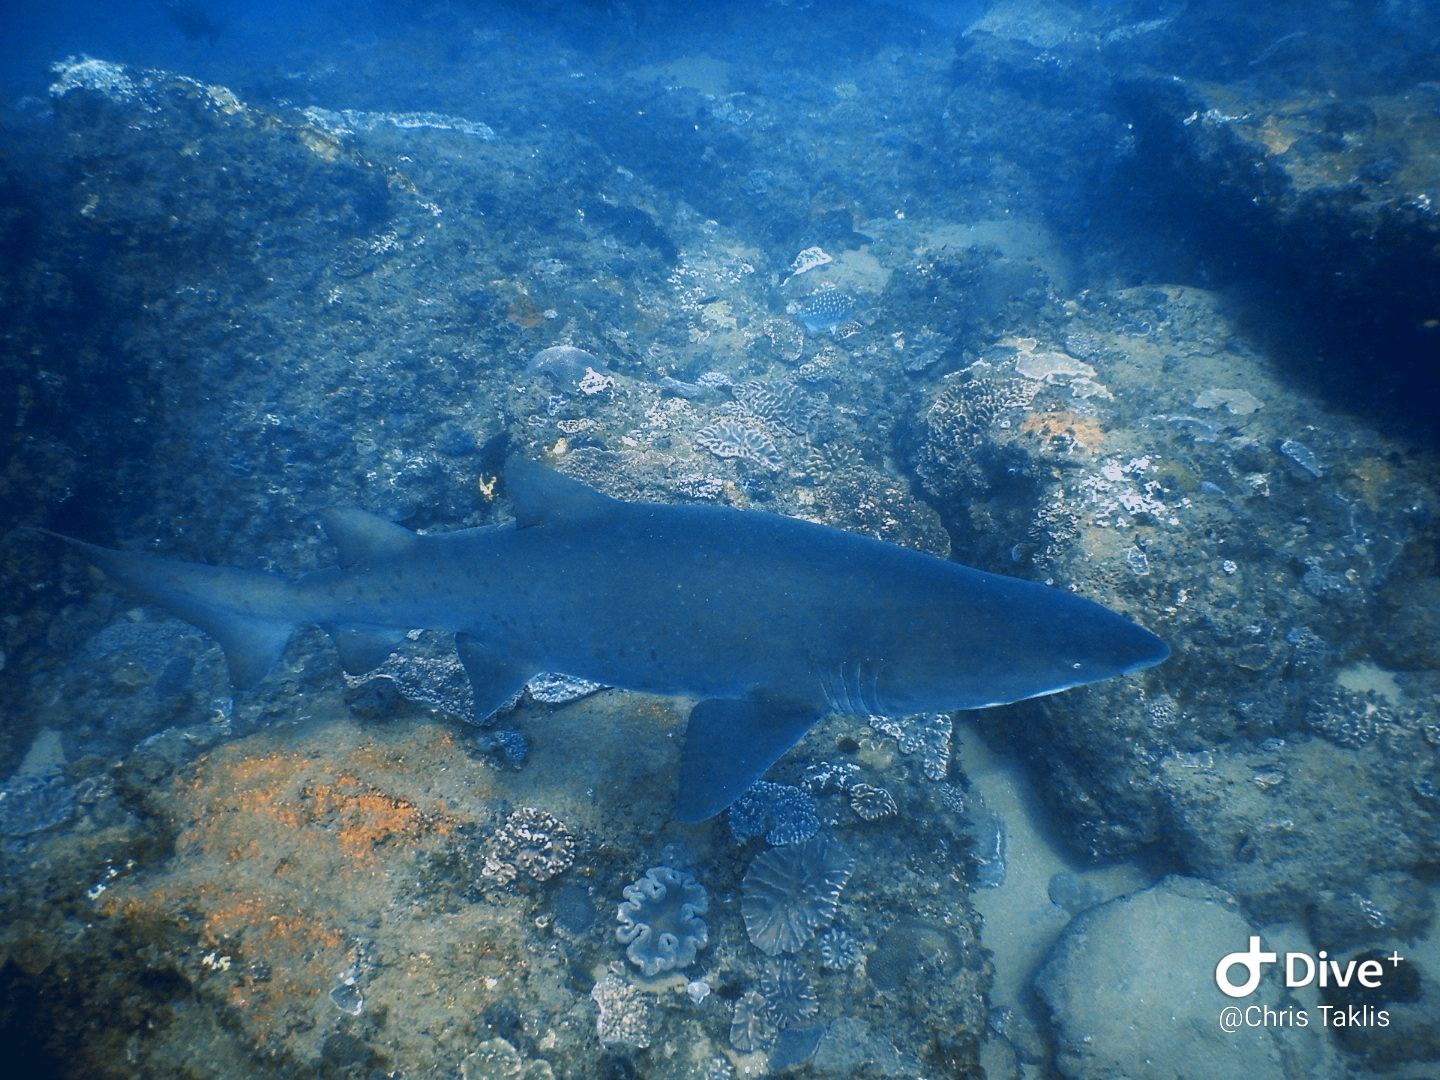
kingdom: Animalia
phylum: Chordata
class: Elasmobranchii
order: Lamniformes
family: Odontaspididae
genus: Carcharias
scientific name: Carcharias taurus
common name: Sand shark
